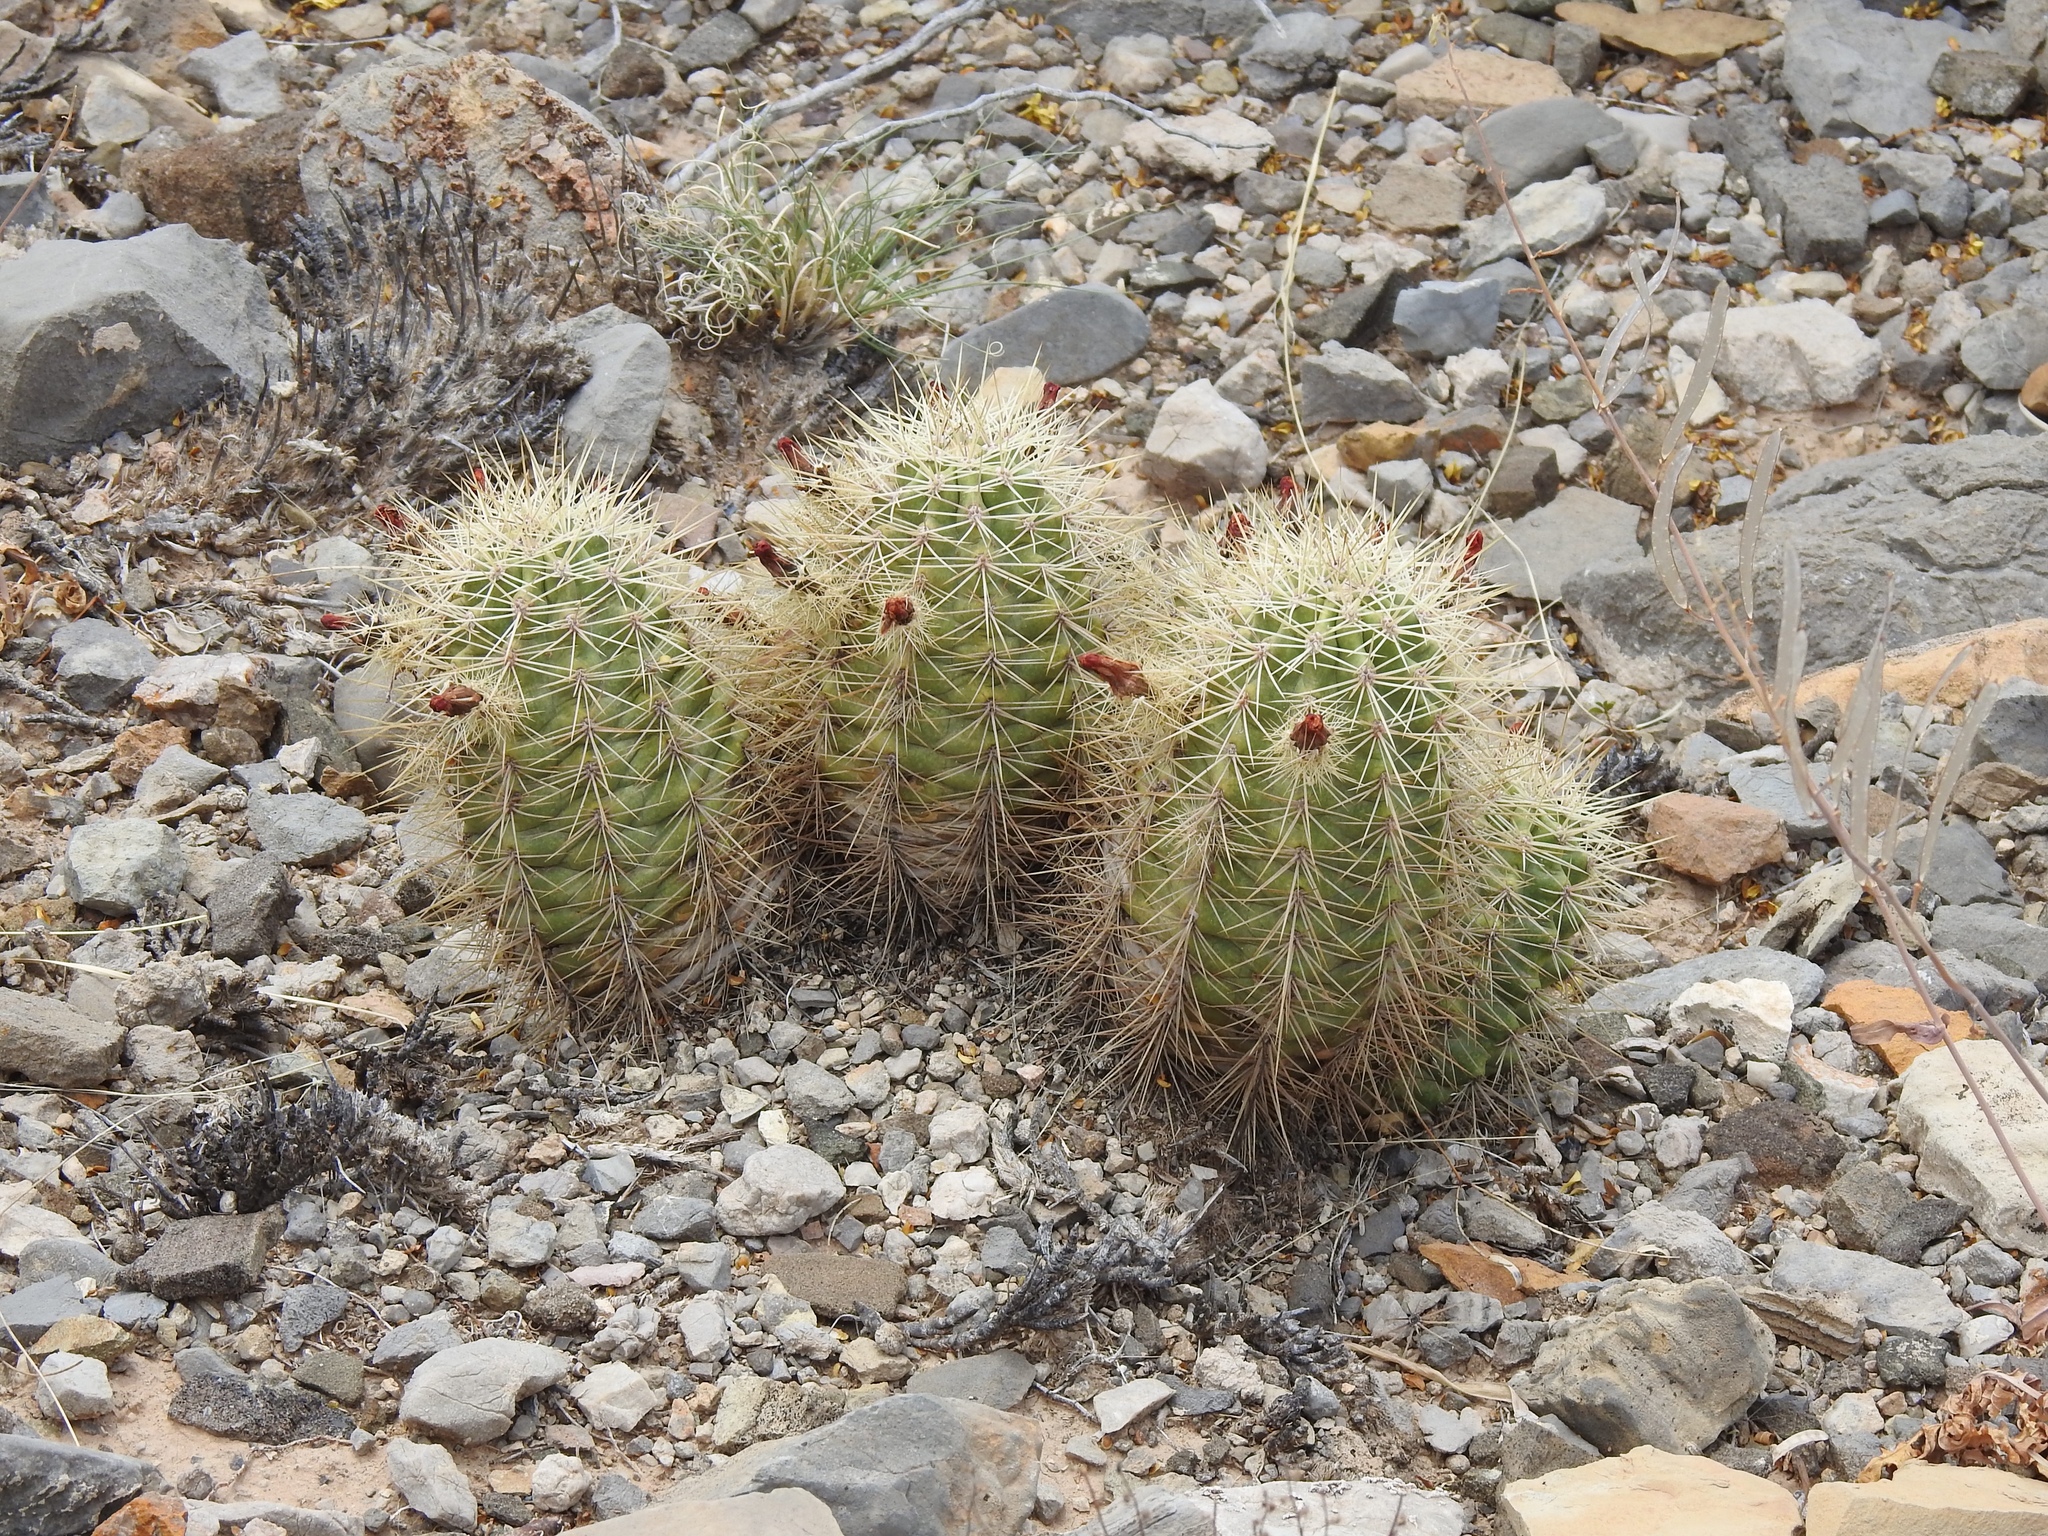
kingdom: Plantae
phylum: Tracheophyta
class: Magnoliopsida
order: Caryophyllales
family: Cactaceae
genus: Echinocereus
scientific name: Echinocereus coccineus
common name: Scarlet hedgehog cactus
